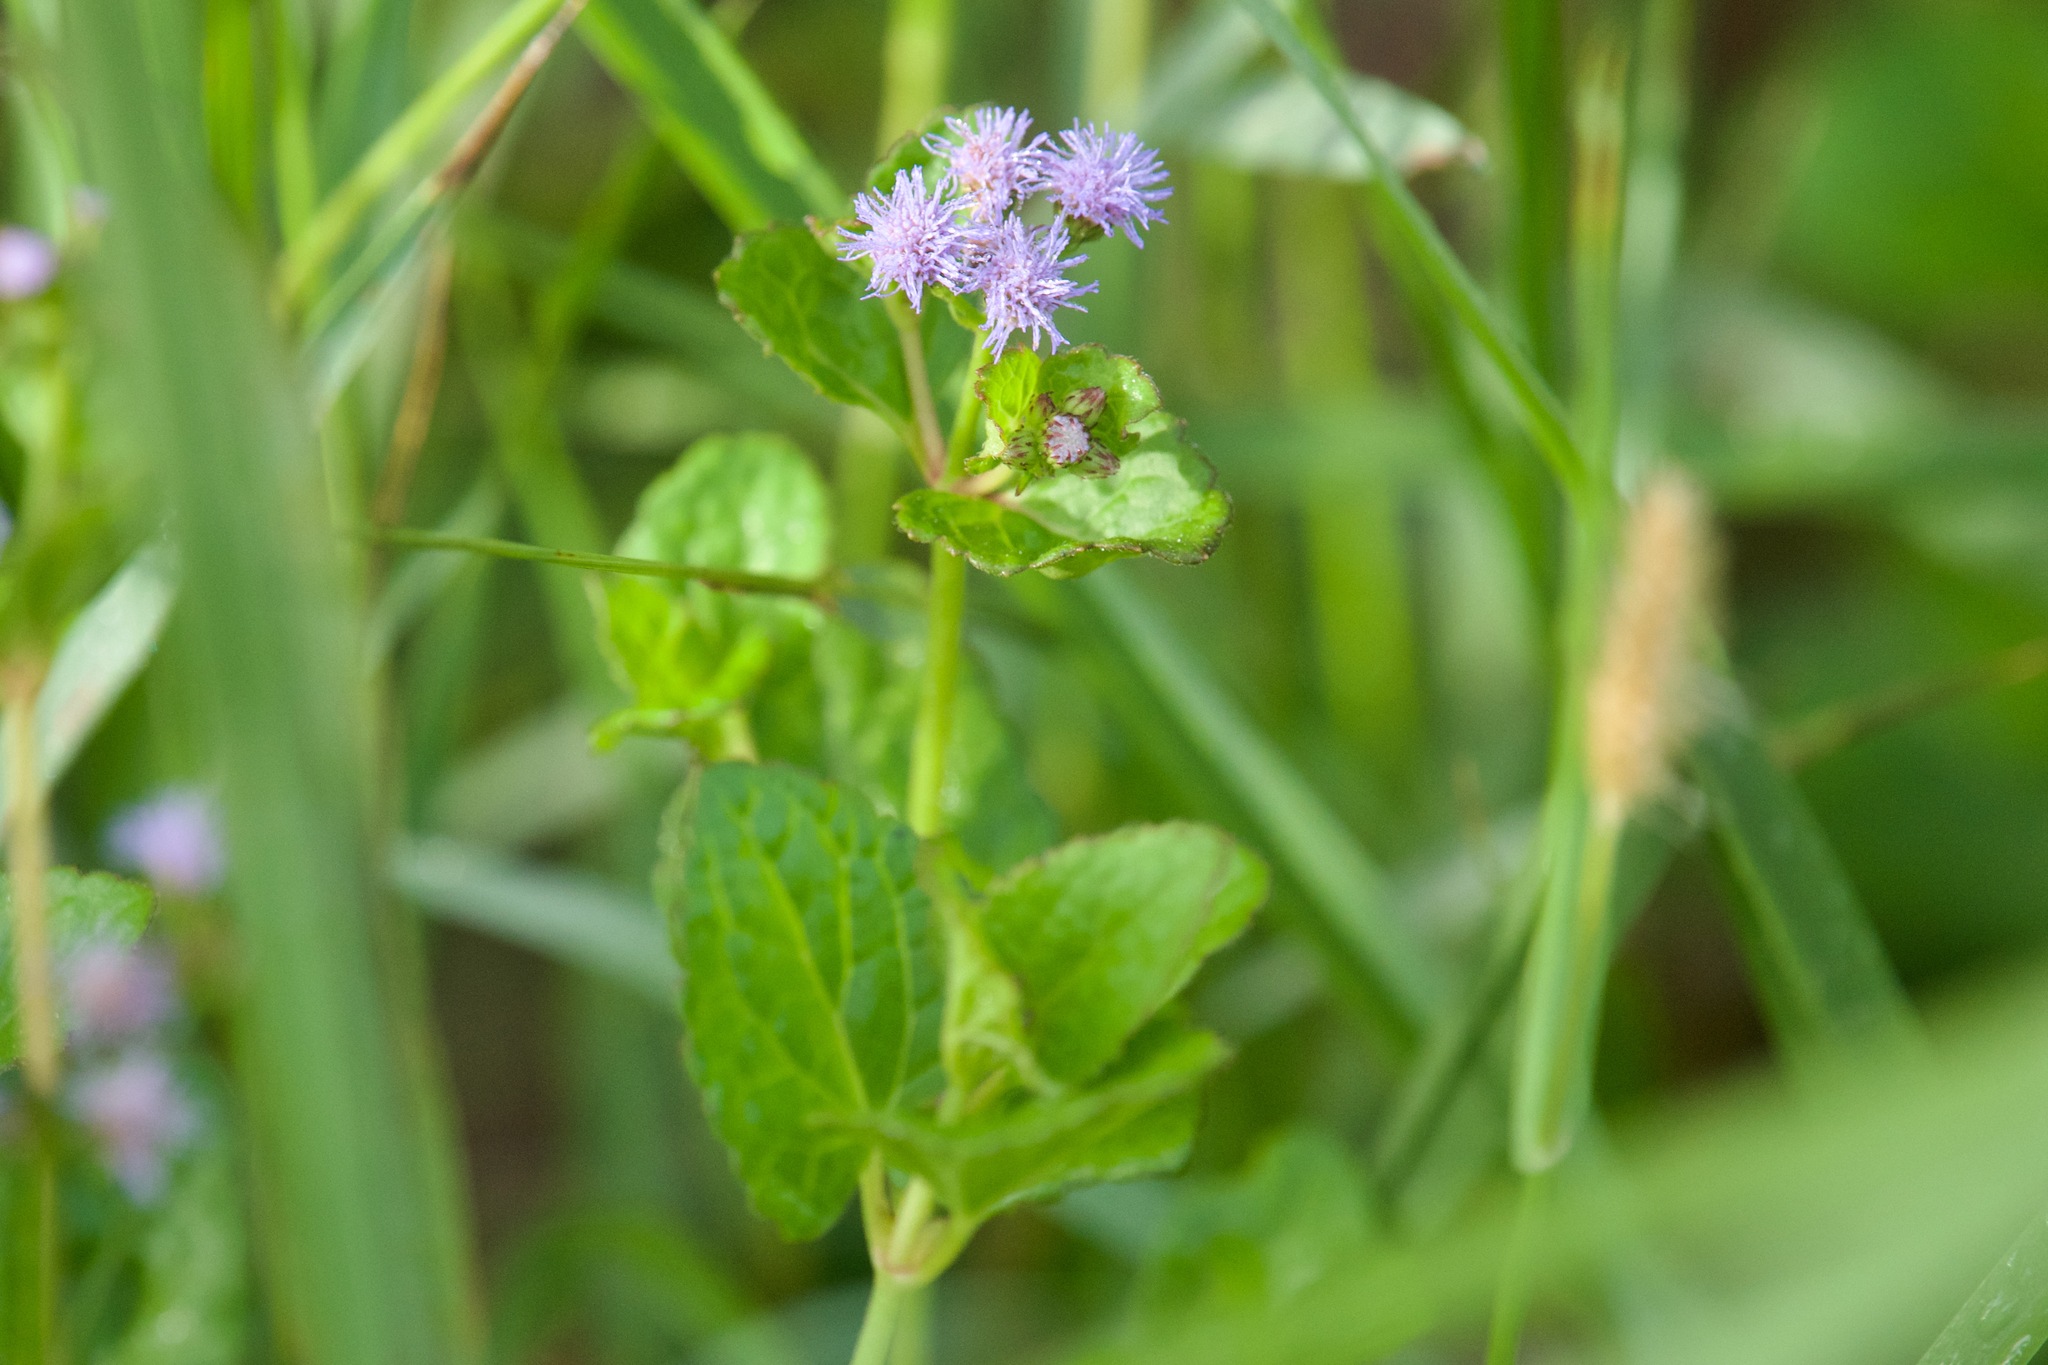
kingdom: Plantae
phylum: Tracheophyta
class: Magnoliopsida
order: Asterales
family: Asteraceae
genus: Conoclinium
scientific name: Conoclinium coelestinum
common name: Blue mistflower
